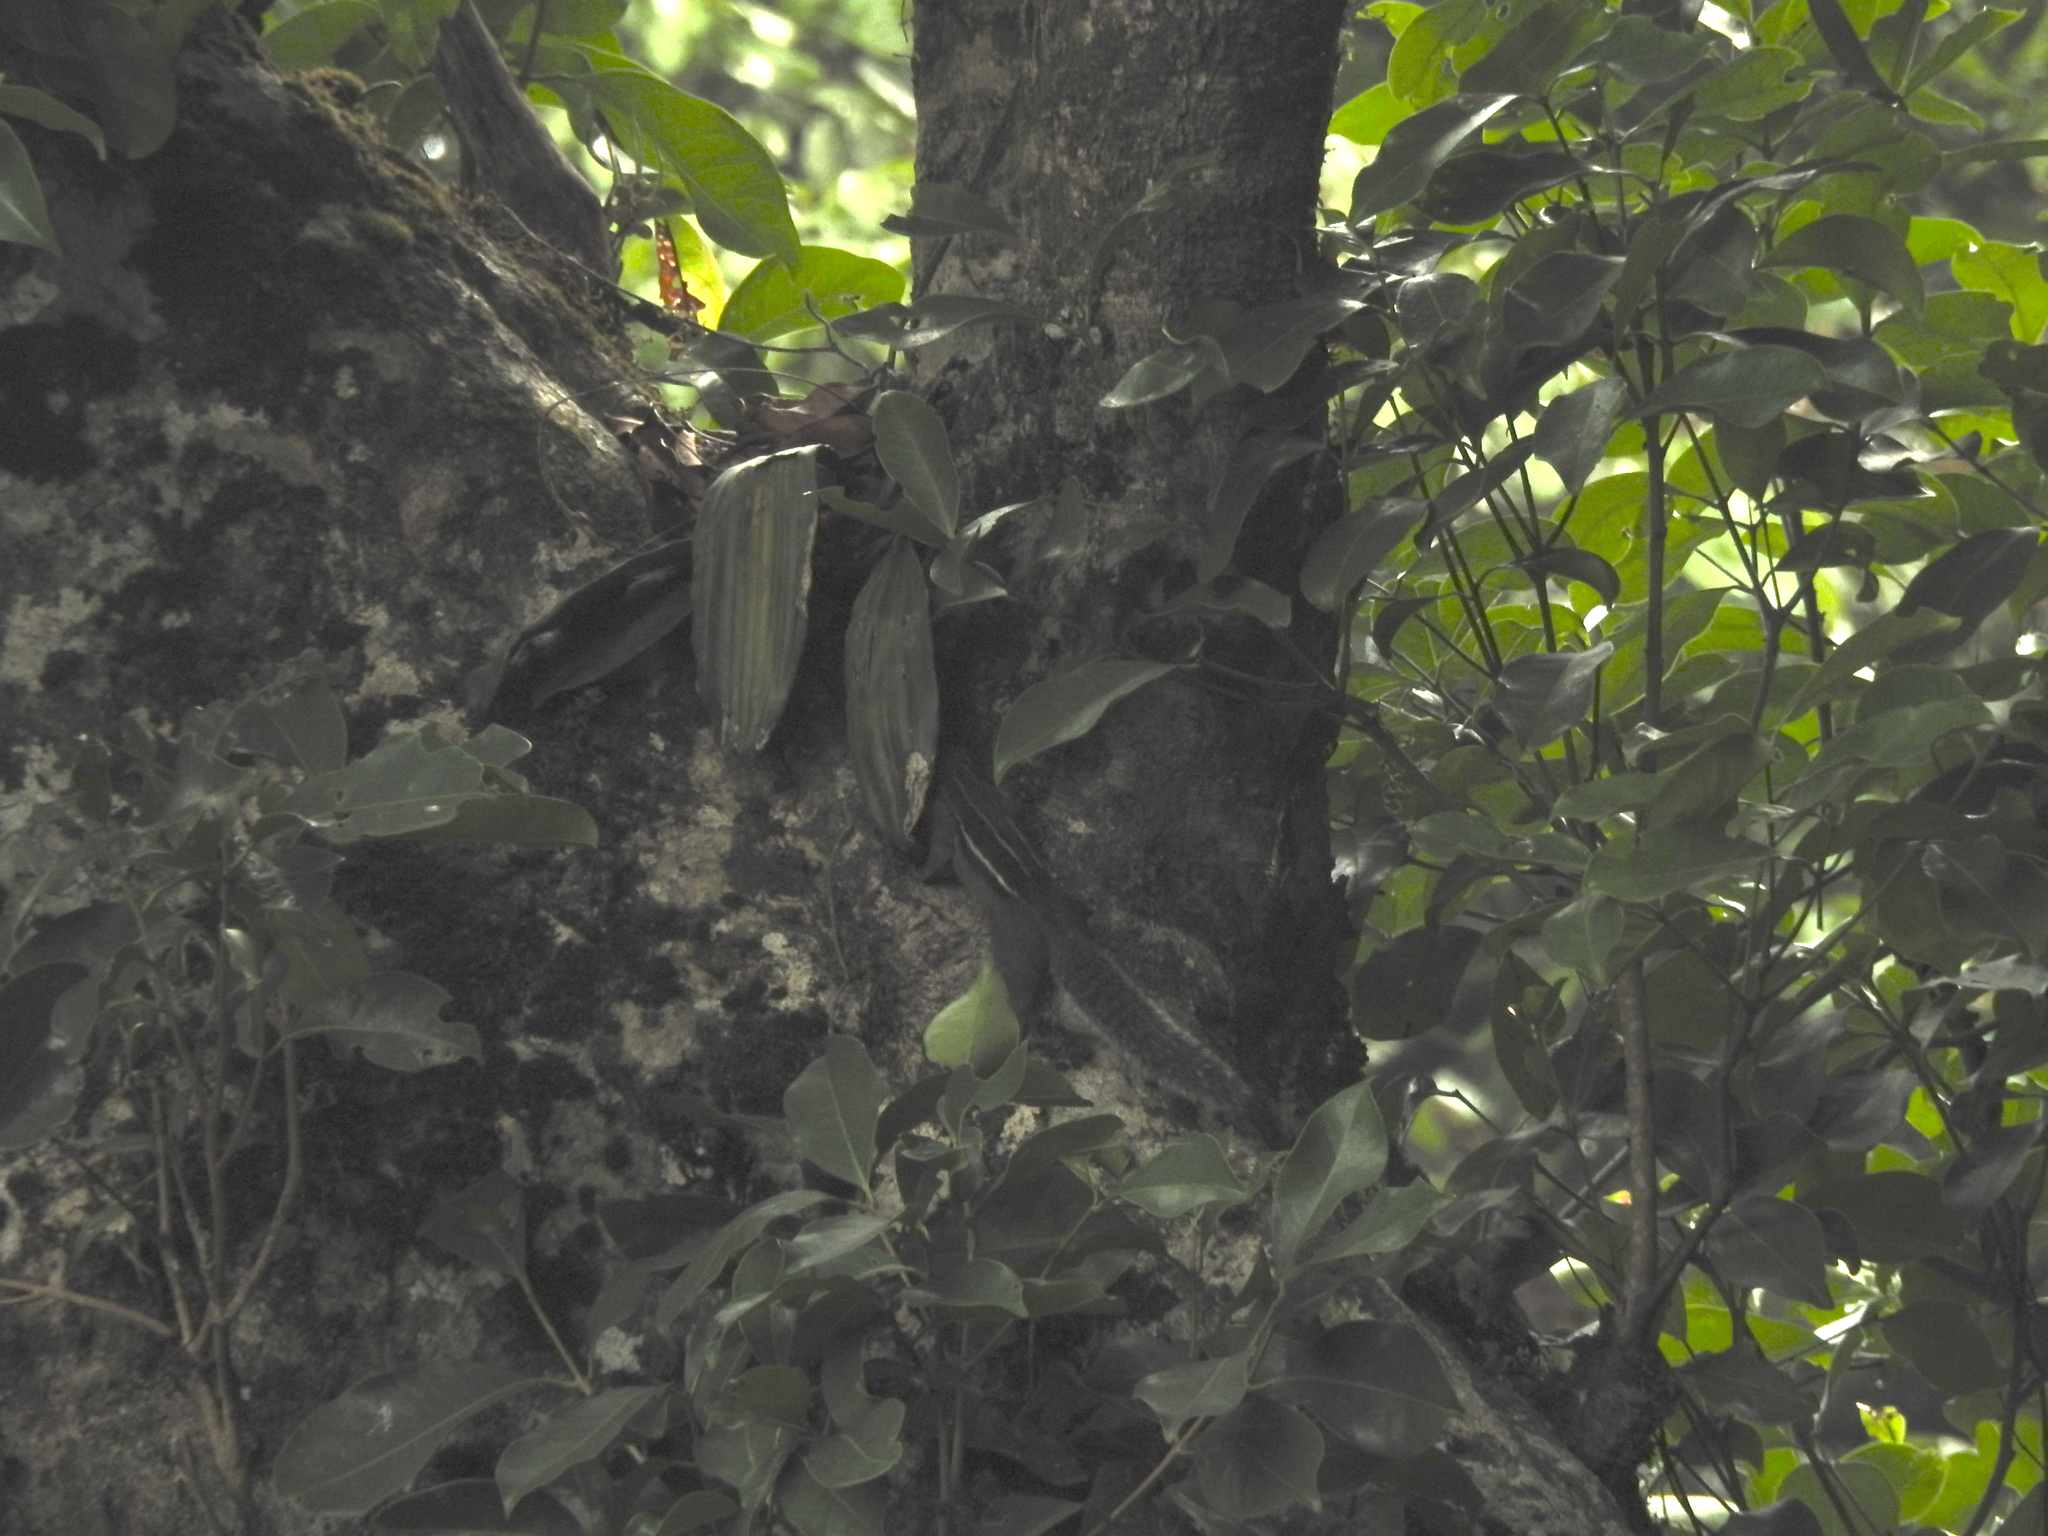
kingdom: Animalia
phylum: Chordata
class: Mammalia
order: Rodentia
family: Sciuridae
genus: Funambulus
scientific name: Funambulus tristriatus
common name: Jungle palm squirrel
